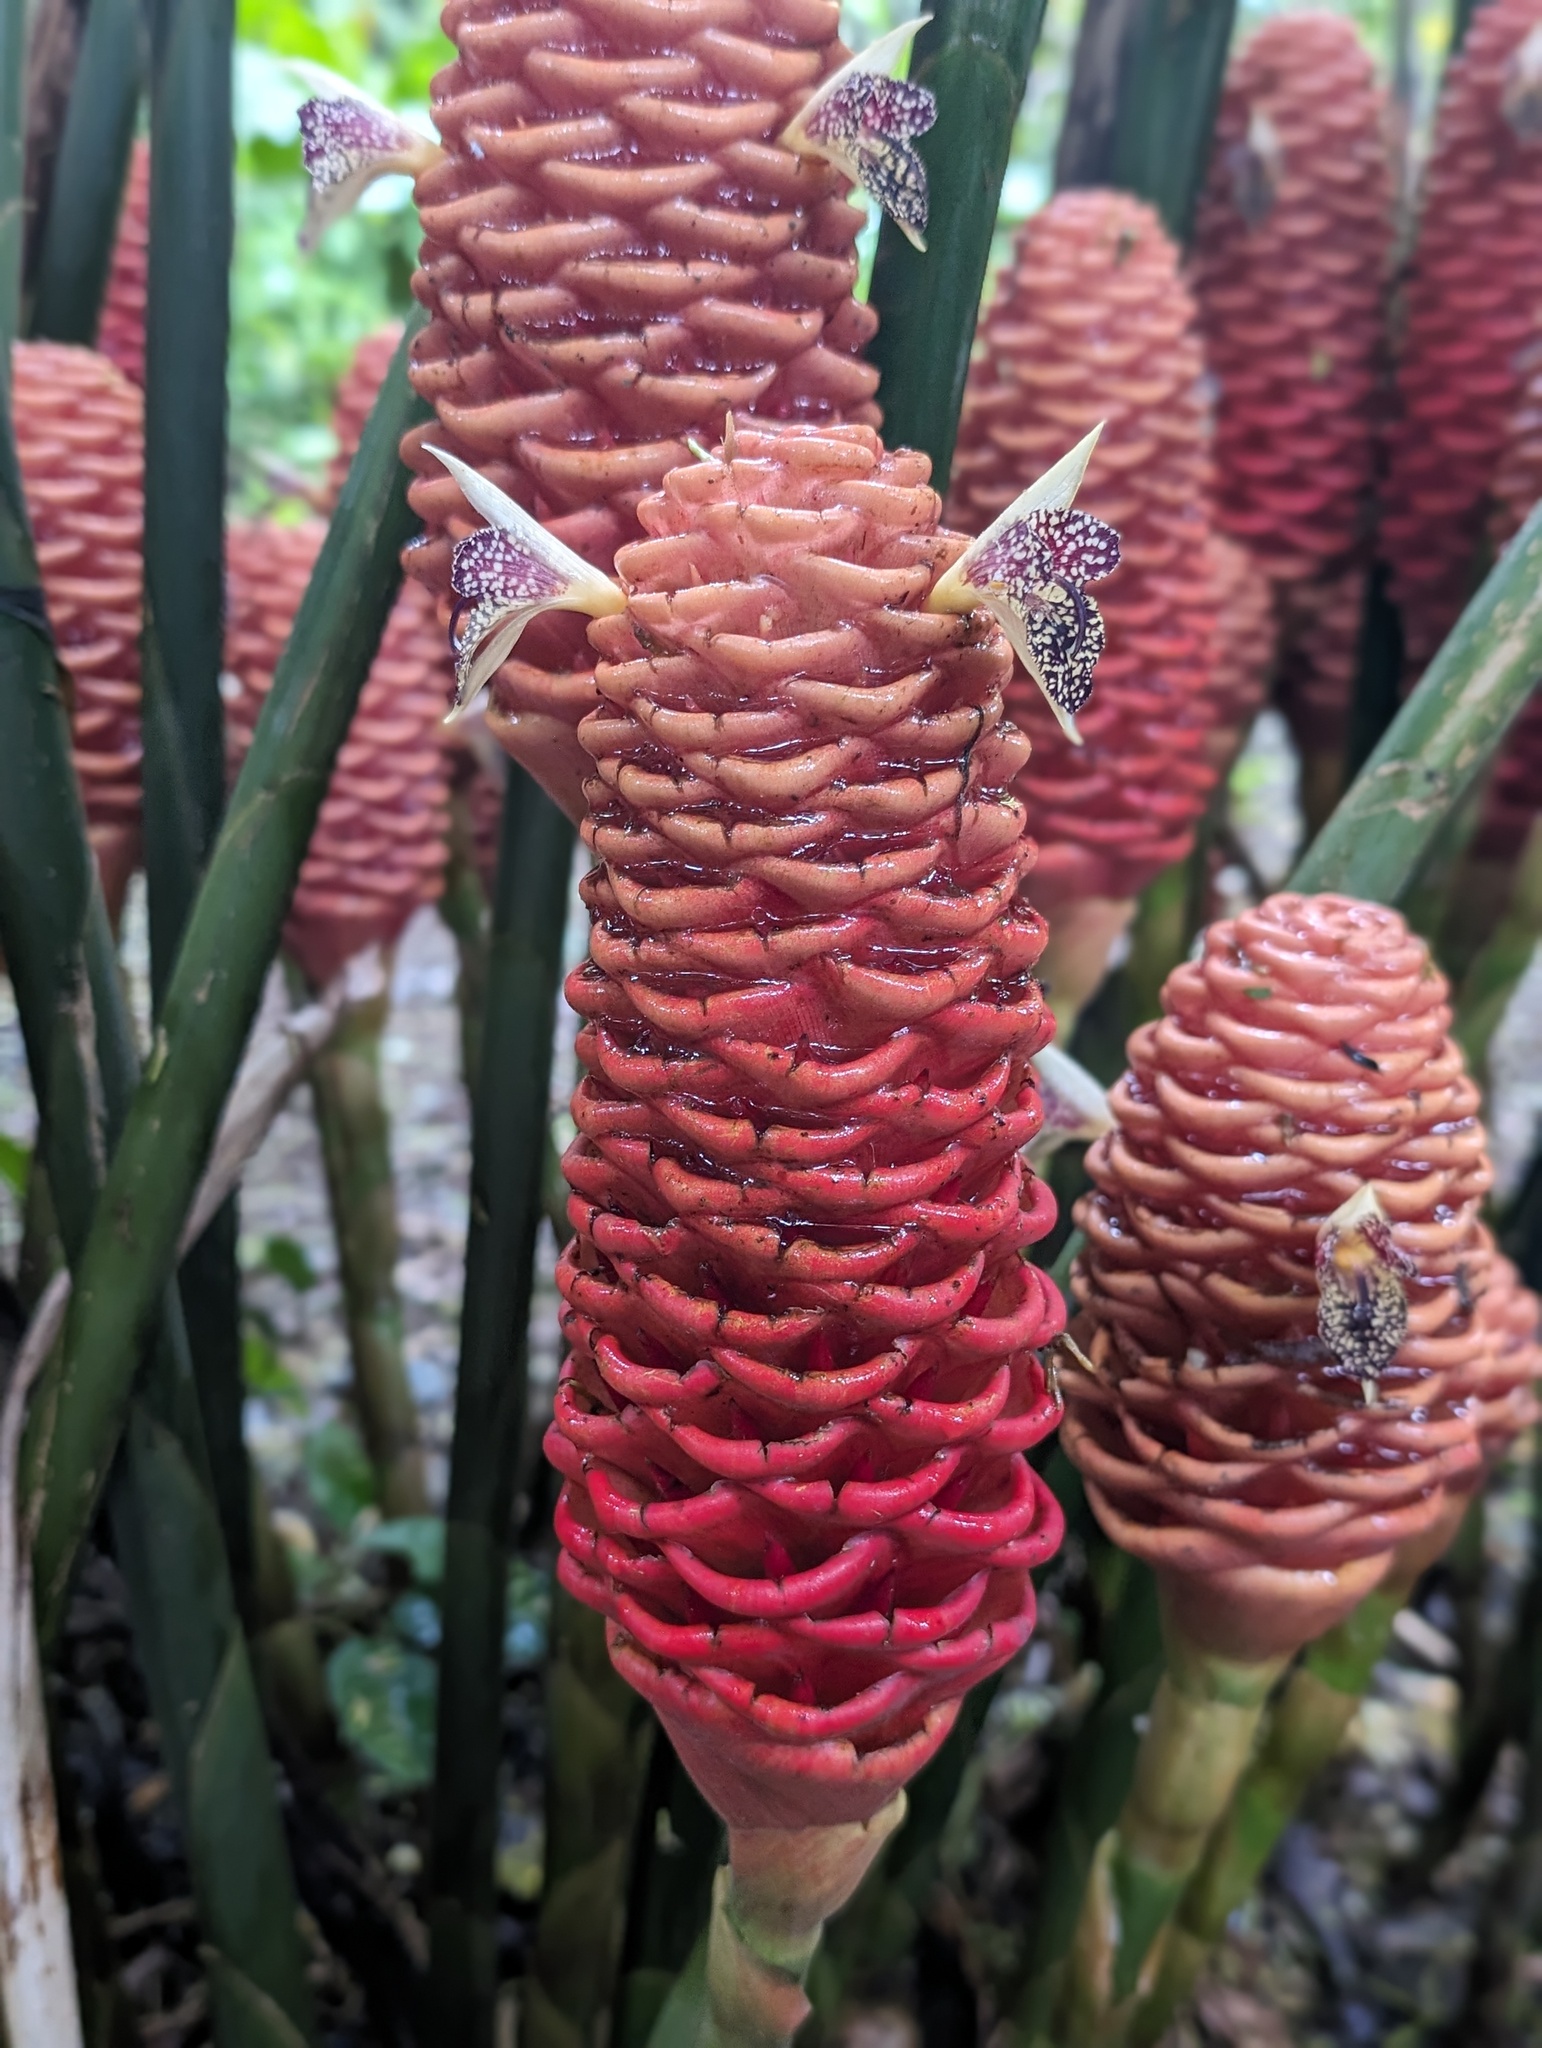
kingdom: Plantae
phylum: Tracheophyta
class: Liliopsida
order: Zingiberales
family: Zingiberaceae
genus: Zingiber
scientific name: Zingiber spectabile
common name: Beehive ginger
